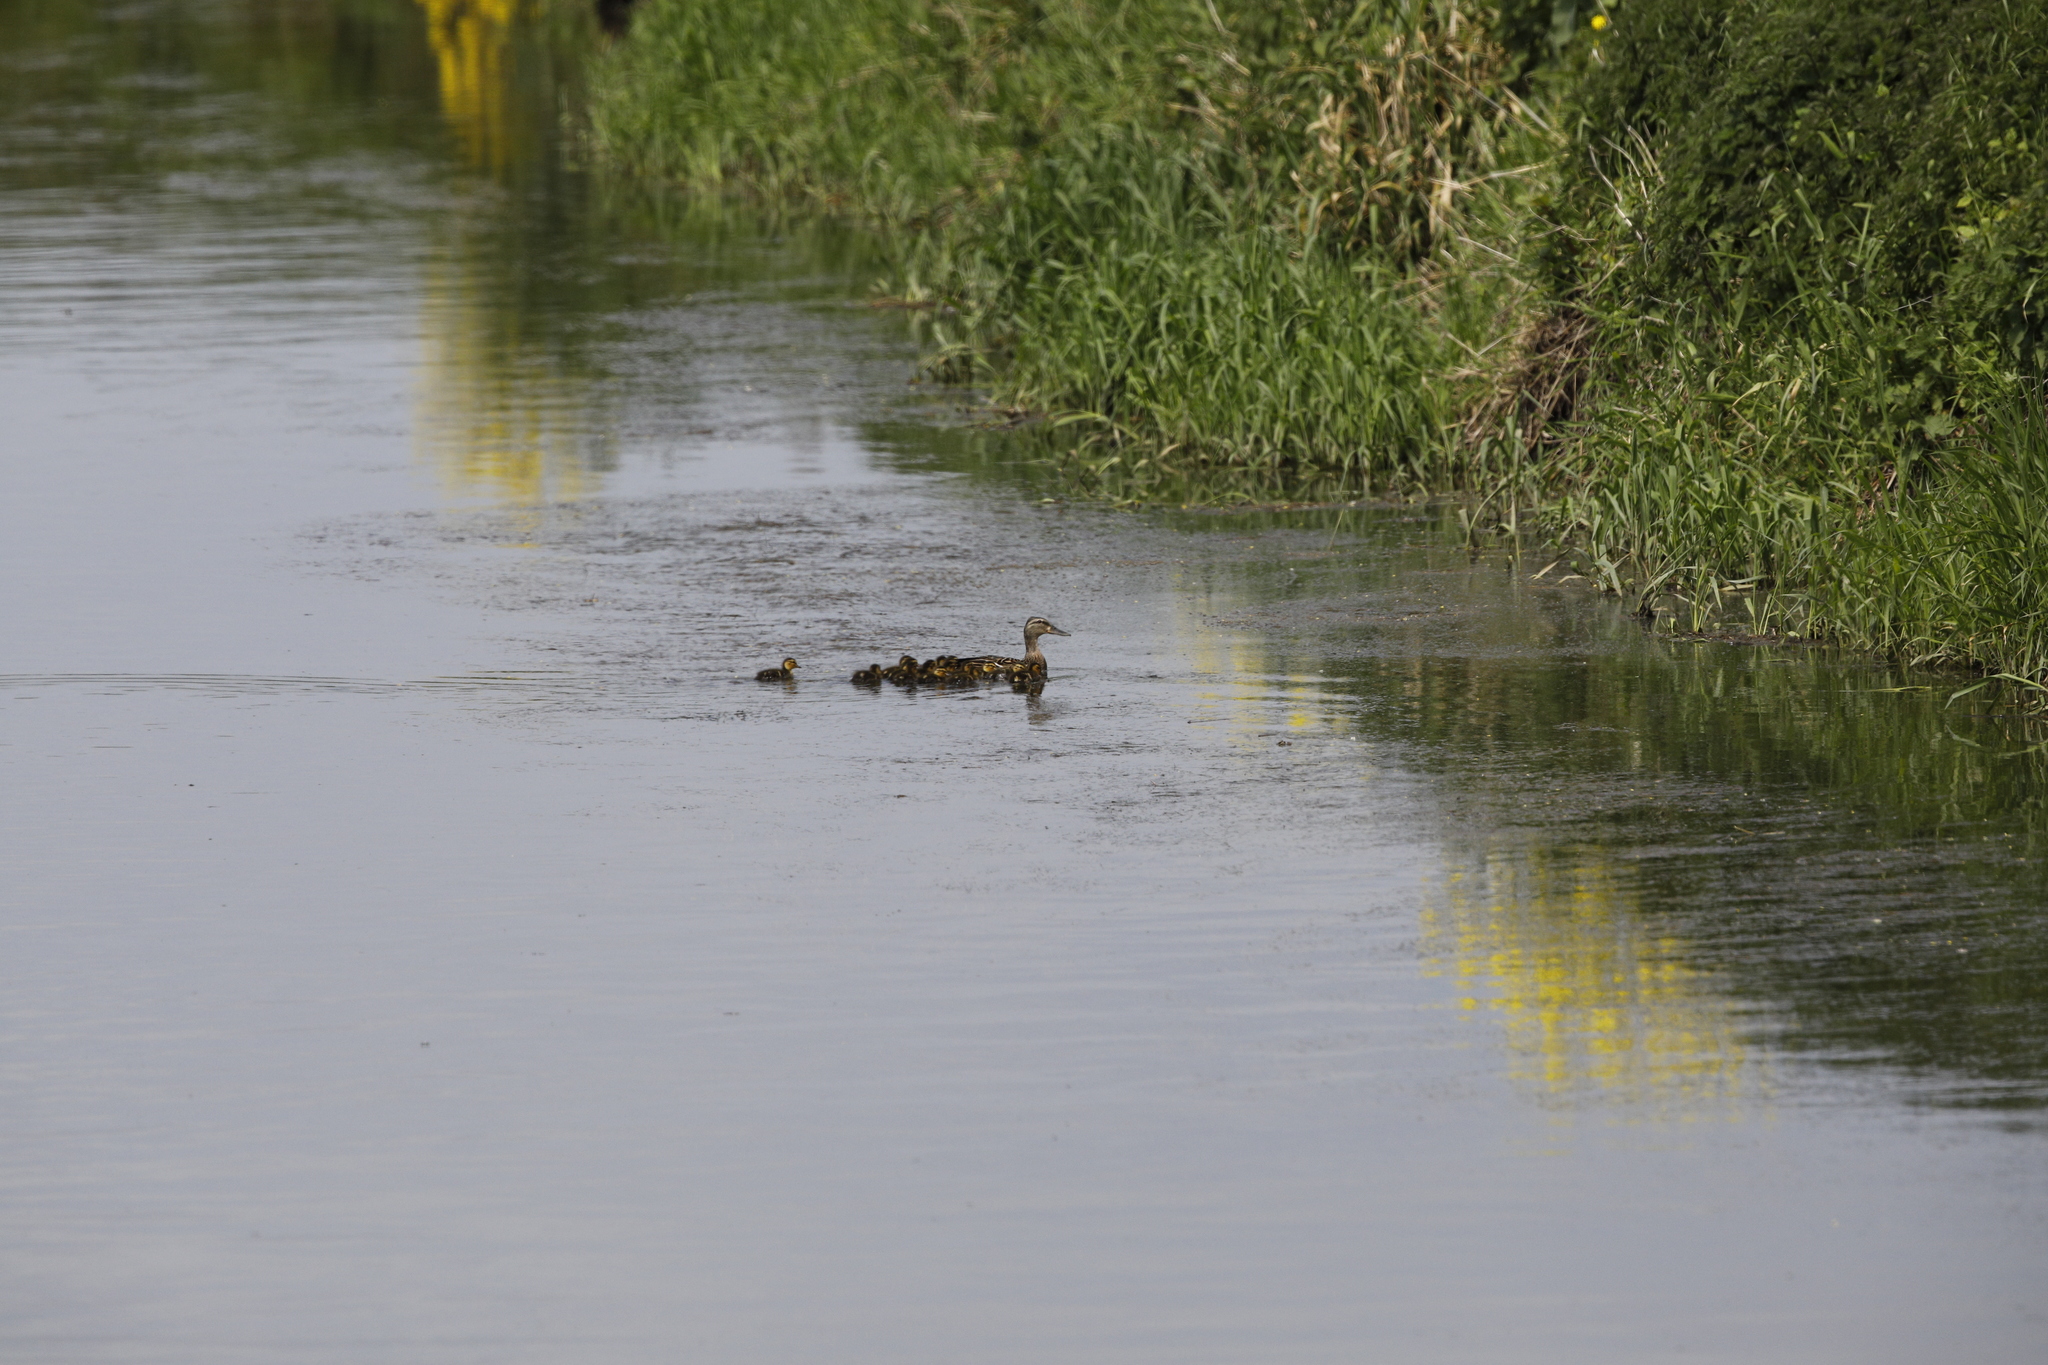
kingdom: Animalia
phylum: Chordata
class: Aves
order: Anseriformes
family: Anatidae
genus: Anas
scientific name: Anas platyrhynchos
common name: Mallard
